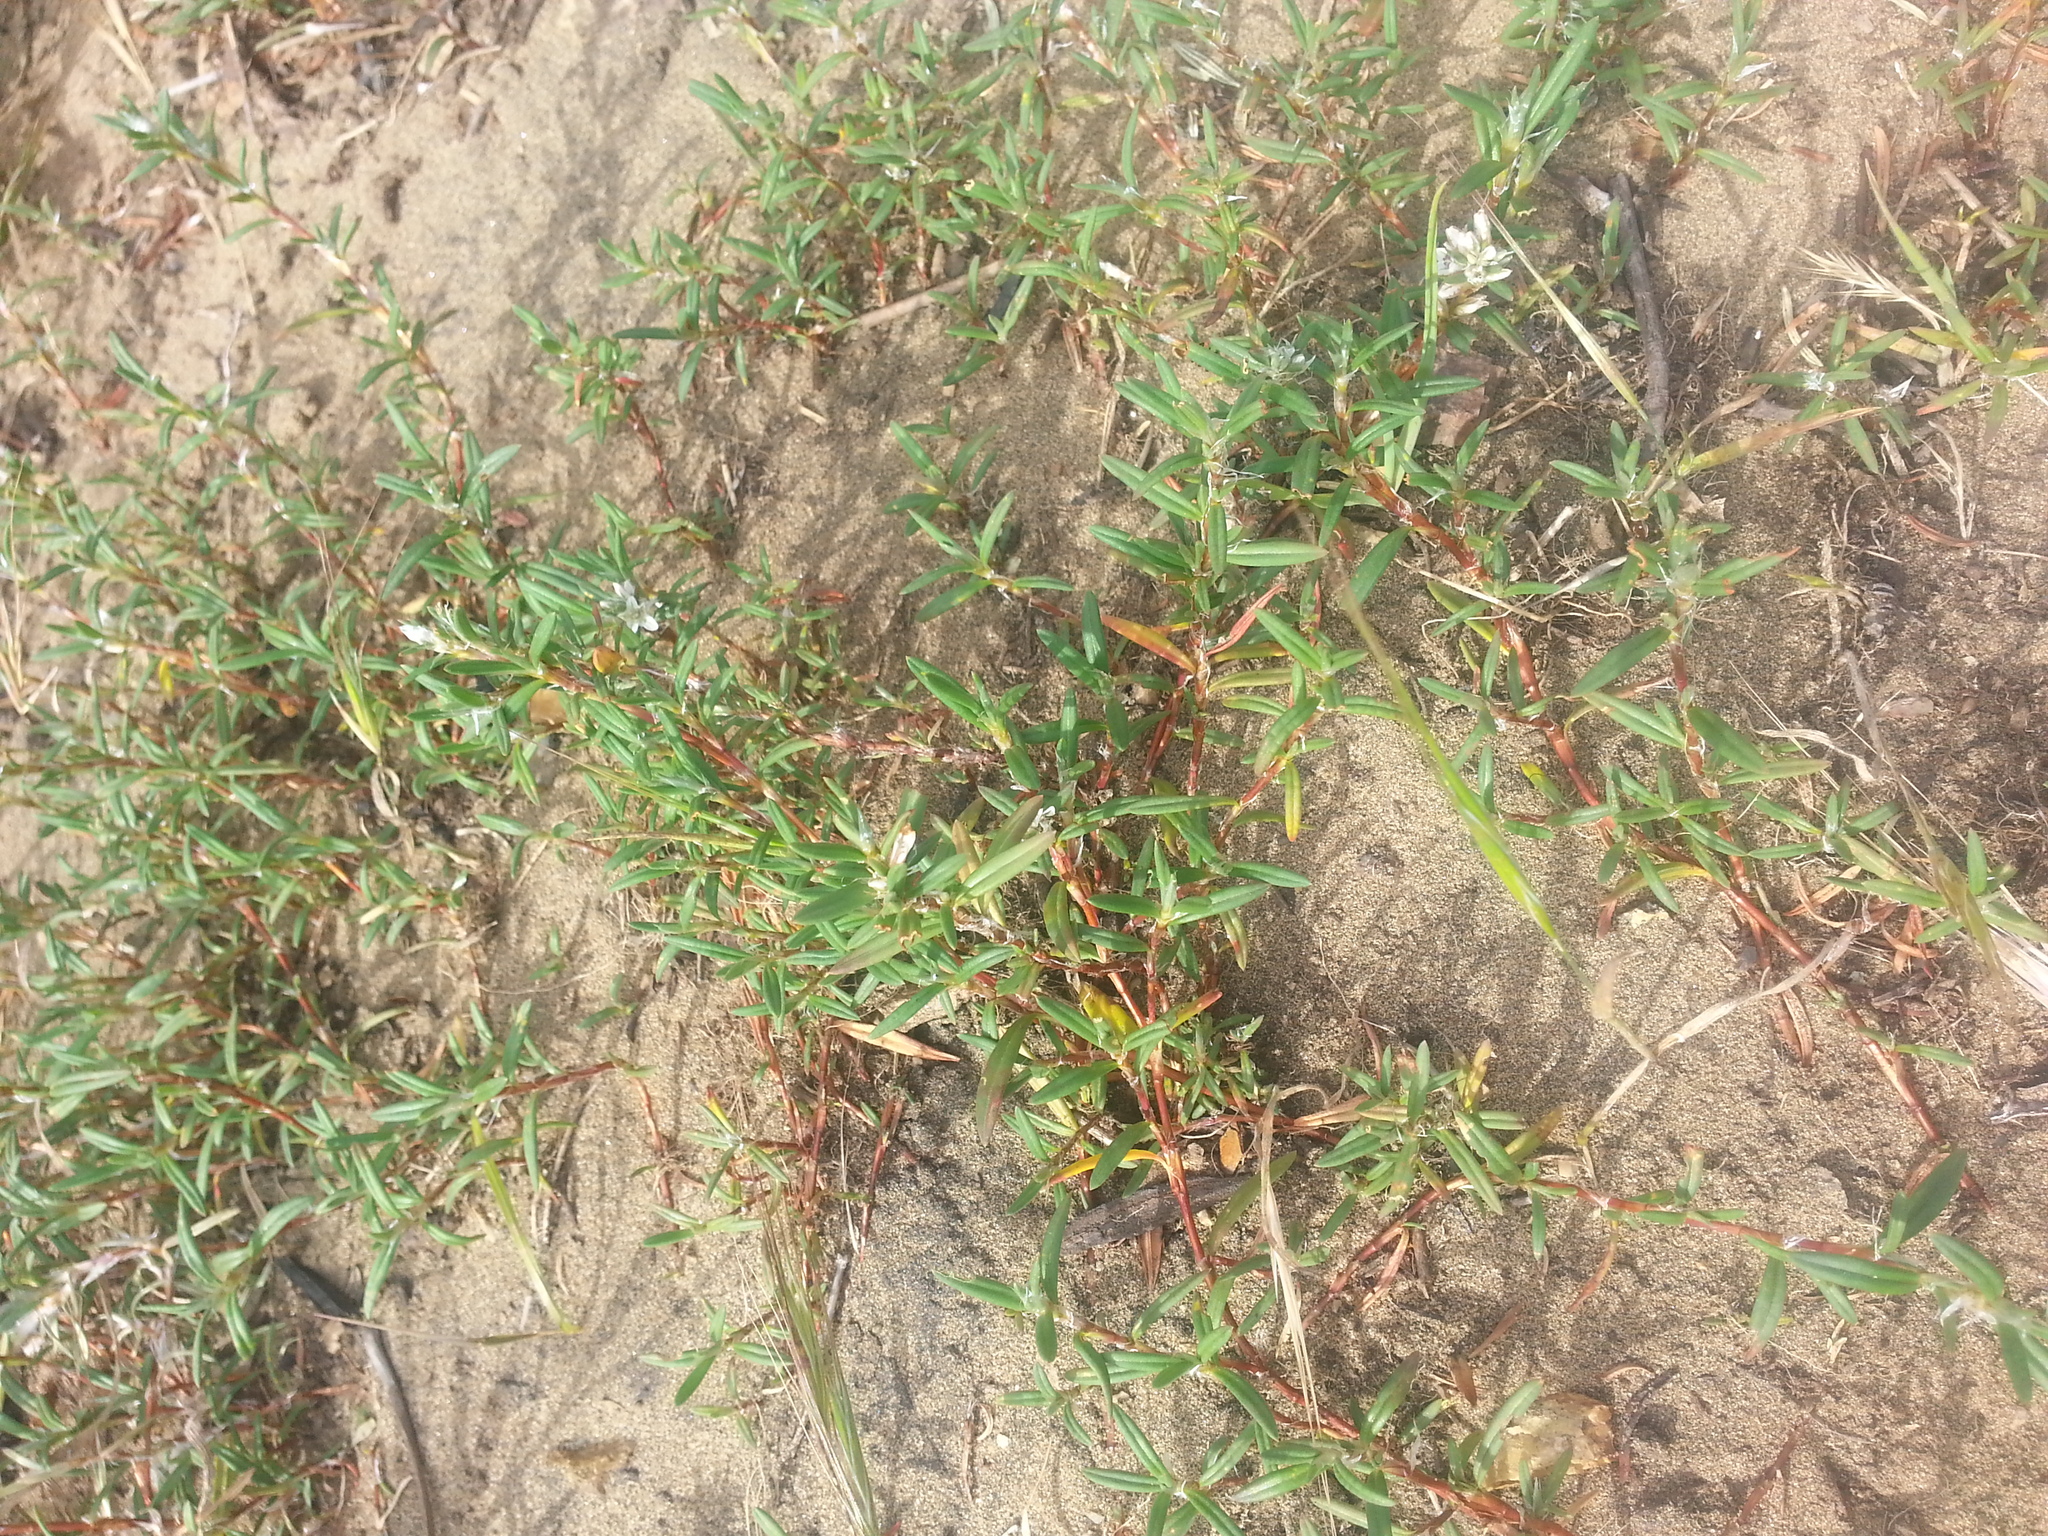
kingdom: Plantae
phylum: Tracheophyta
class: Magnoliopsida
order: Caryophyllales
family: Polygonaceae
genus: Polygonum
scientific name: Polygonum paronychia
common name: Dune knotweed
